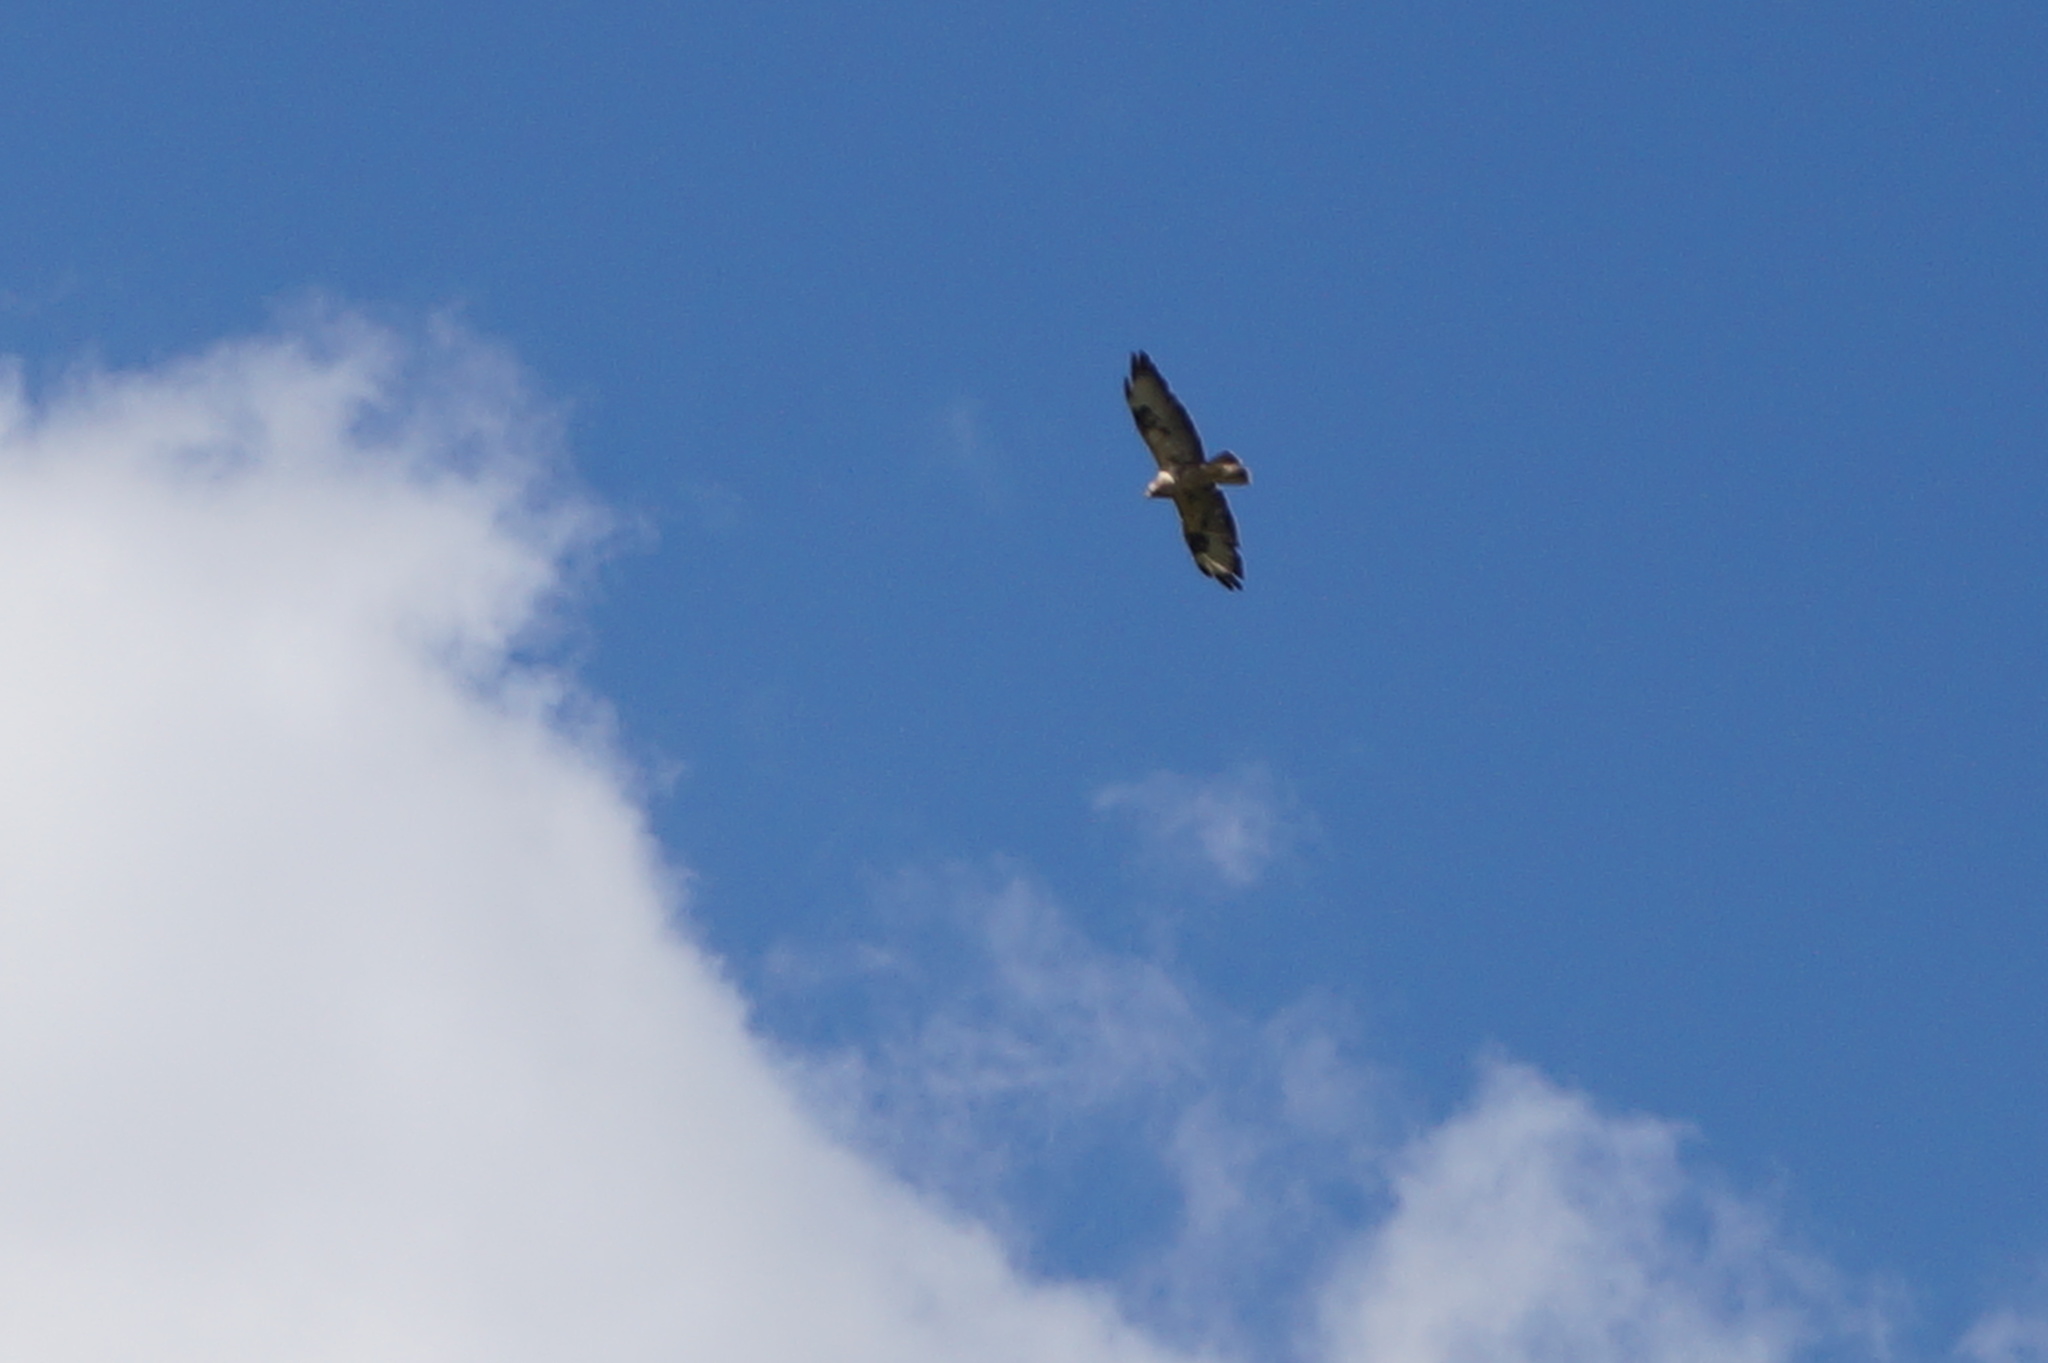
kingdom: Animalia
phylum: Chordata
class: Aves
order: Accipitriformes
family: Accipitridae
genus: Buteo
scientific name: Buteo buteo
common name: Common buzzard
